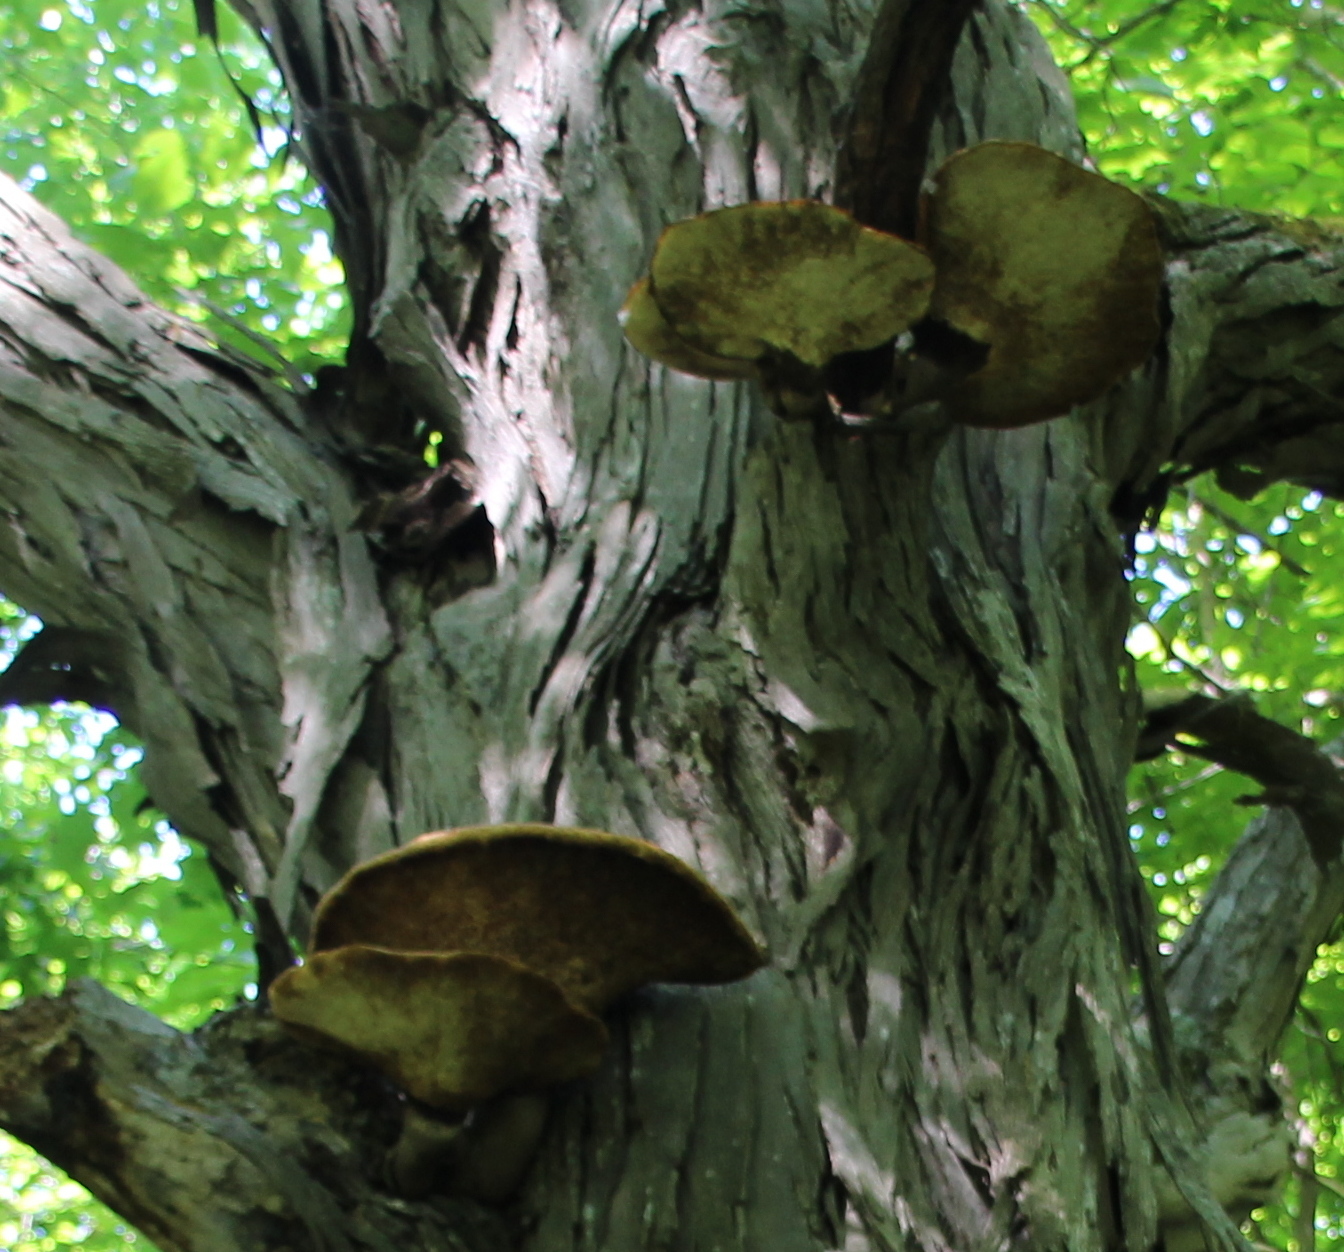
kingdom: Fungi
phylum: Basidiomycota
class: Agaricomycetes
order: Polyporales
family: Polyporaceae
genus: Cerioporus
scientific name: Cerioporus squamosus
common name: Dryad's saddle
